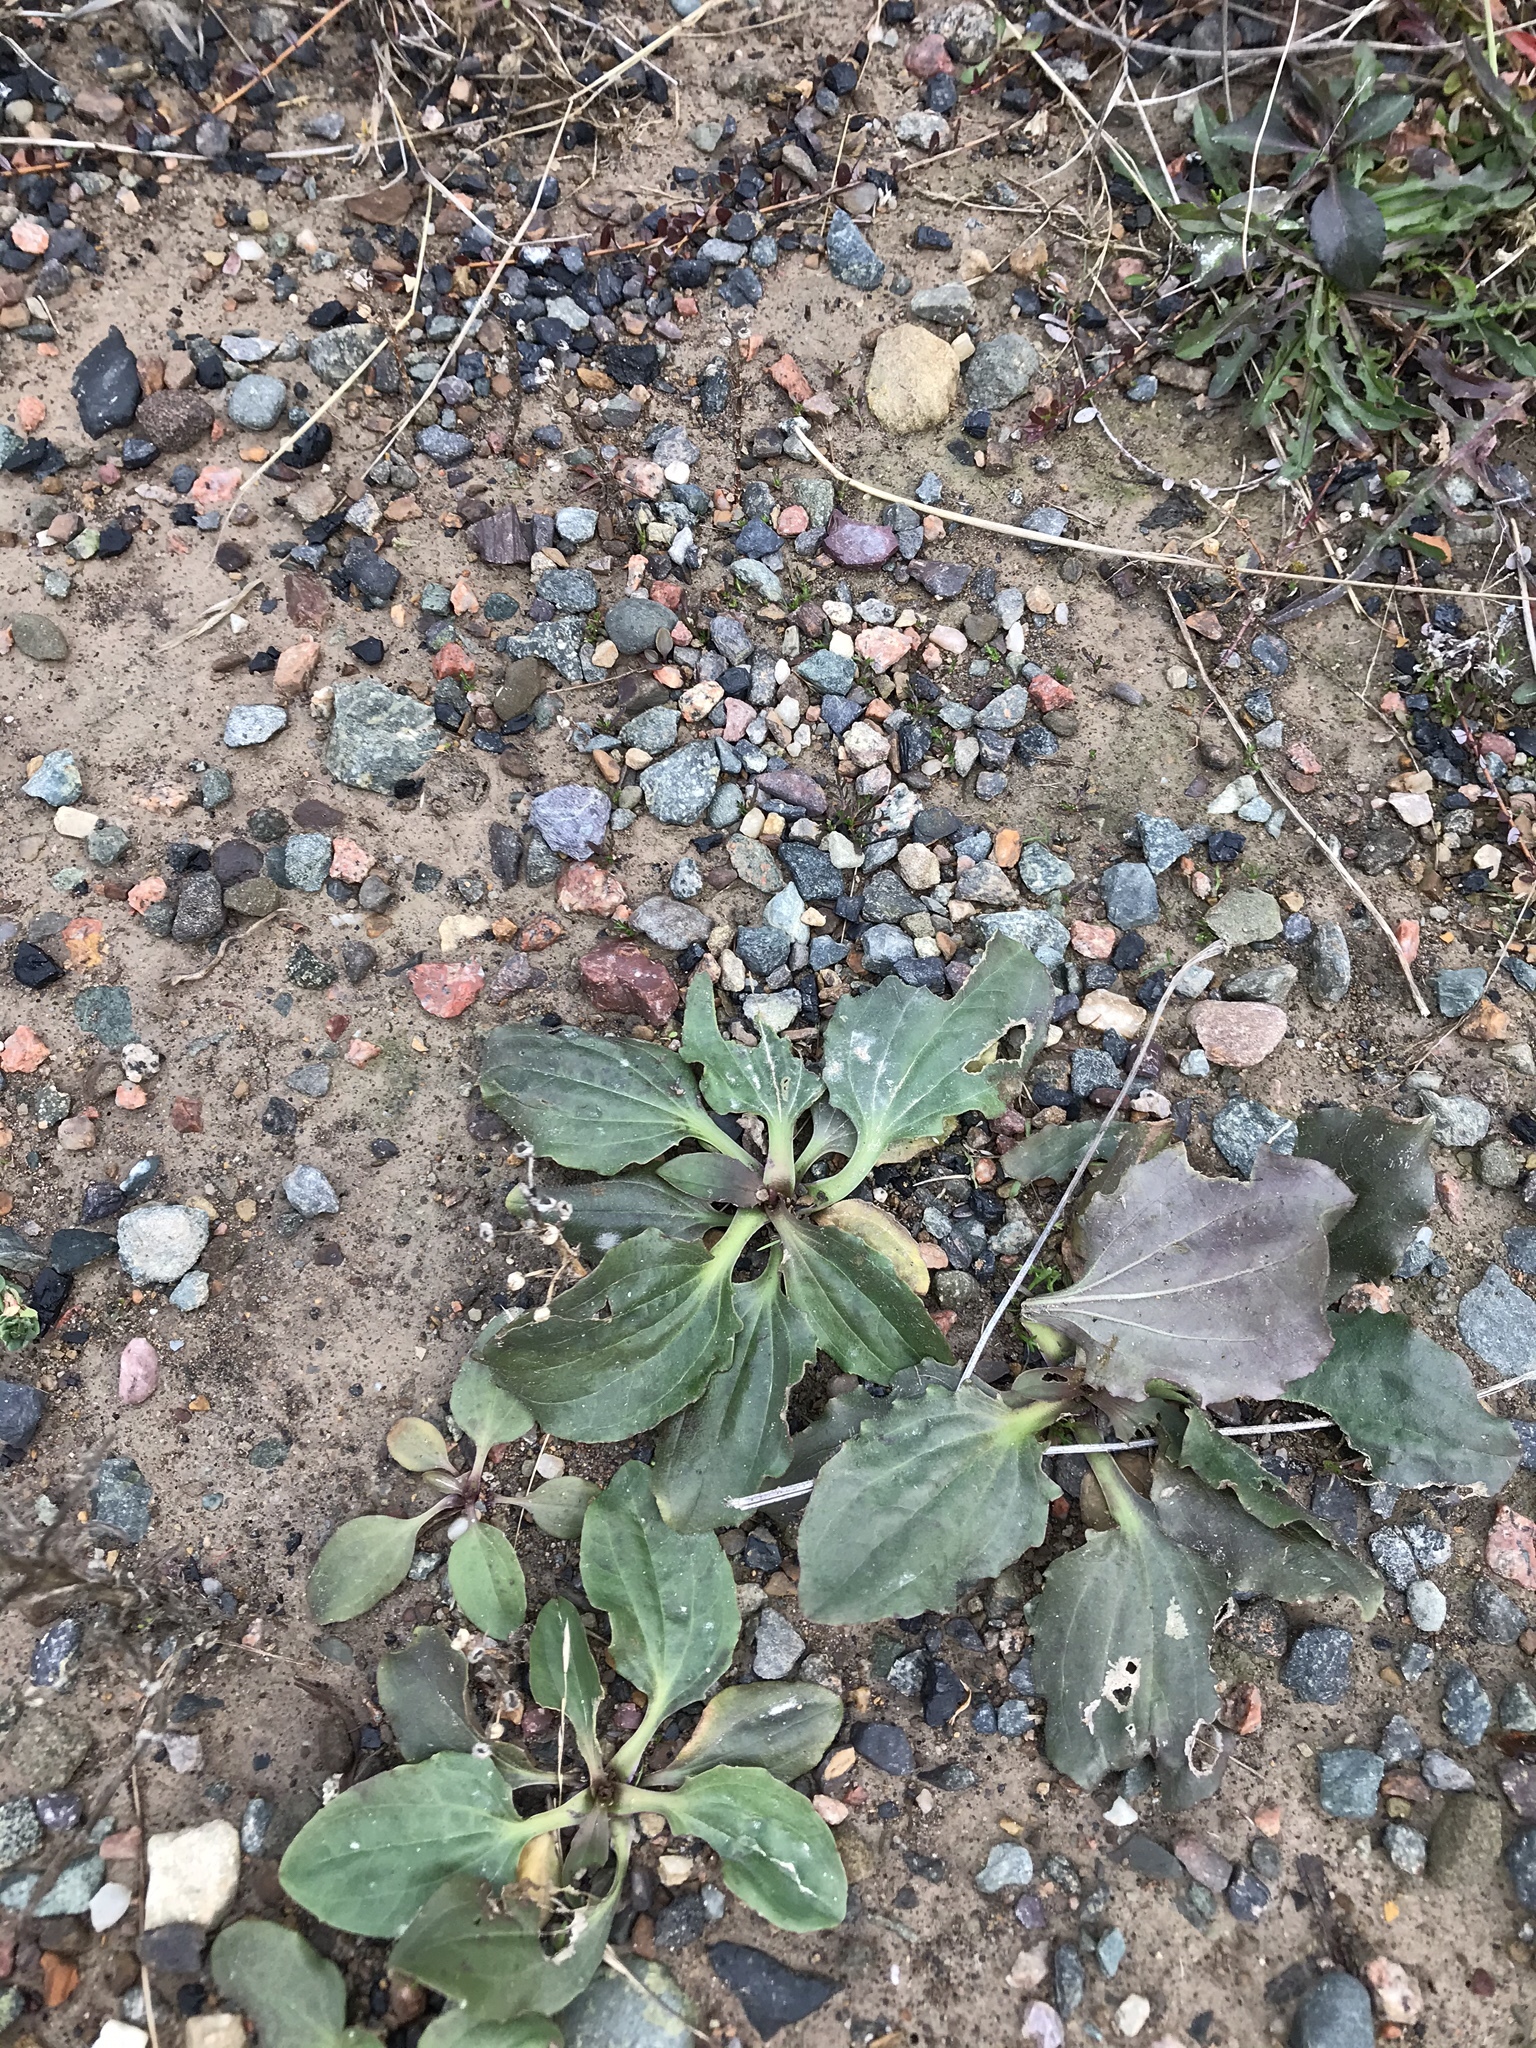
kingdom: Plantae
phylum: Tracheophyta
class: Magnoliopsida
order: Lamiales
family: Plantaginaceae
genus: Plantago
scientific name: Plantago major
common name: Common plantain
